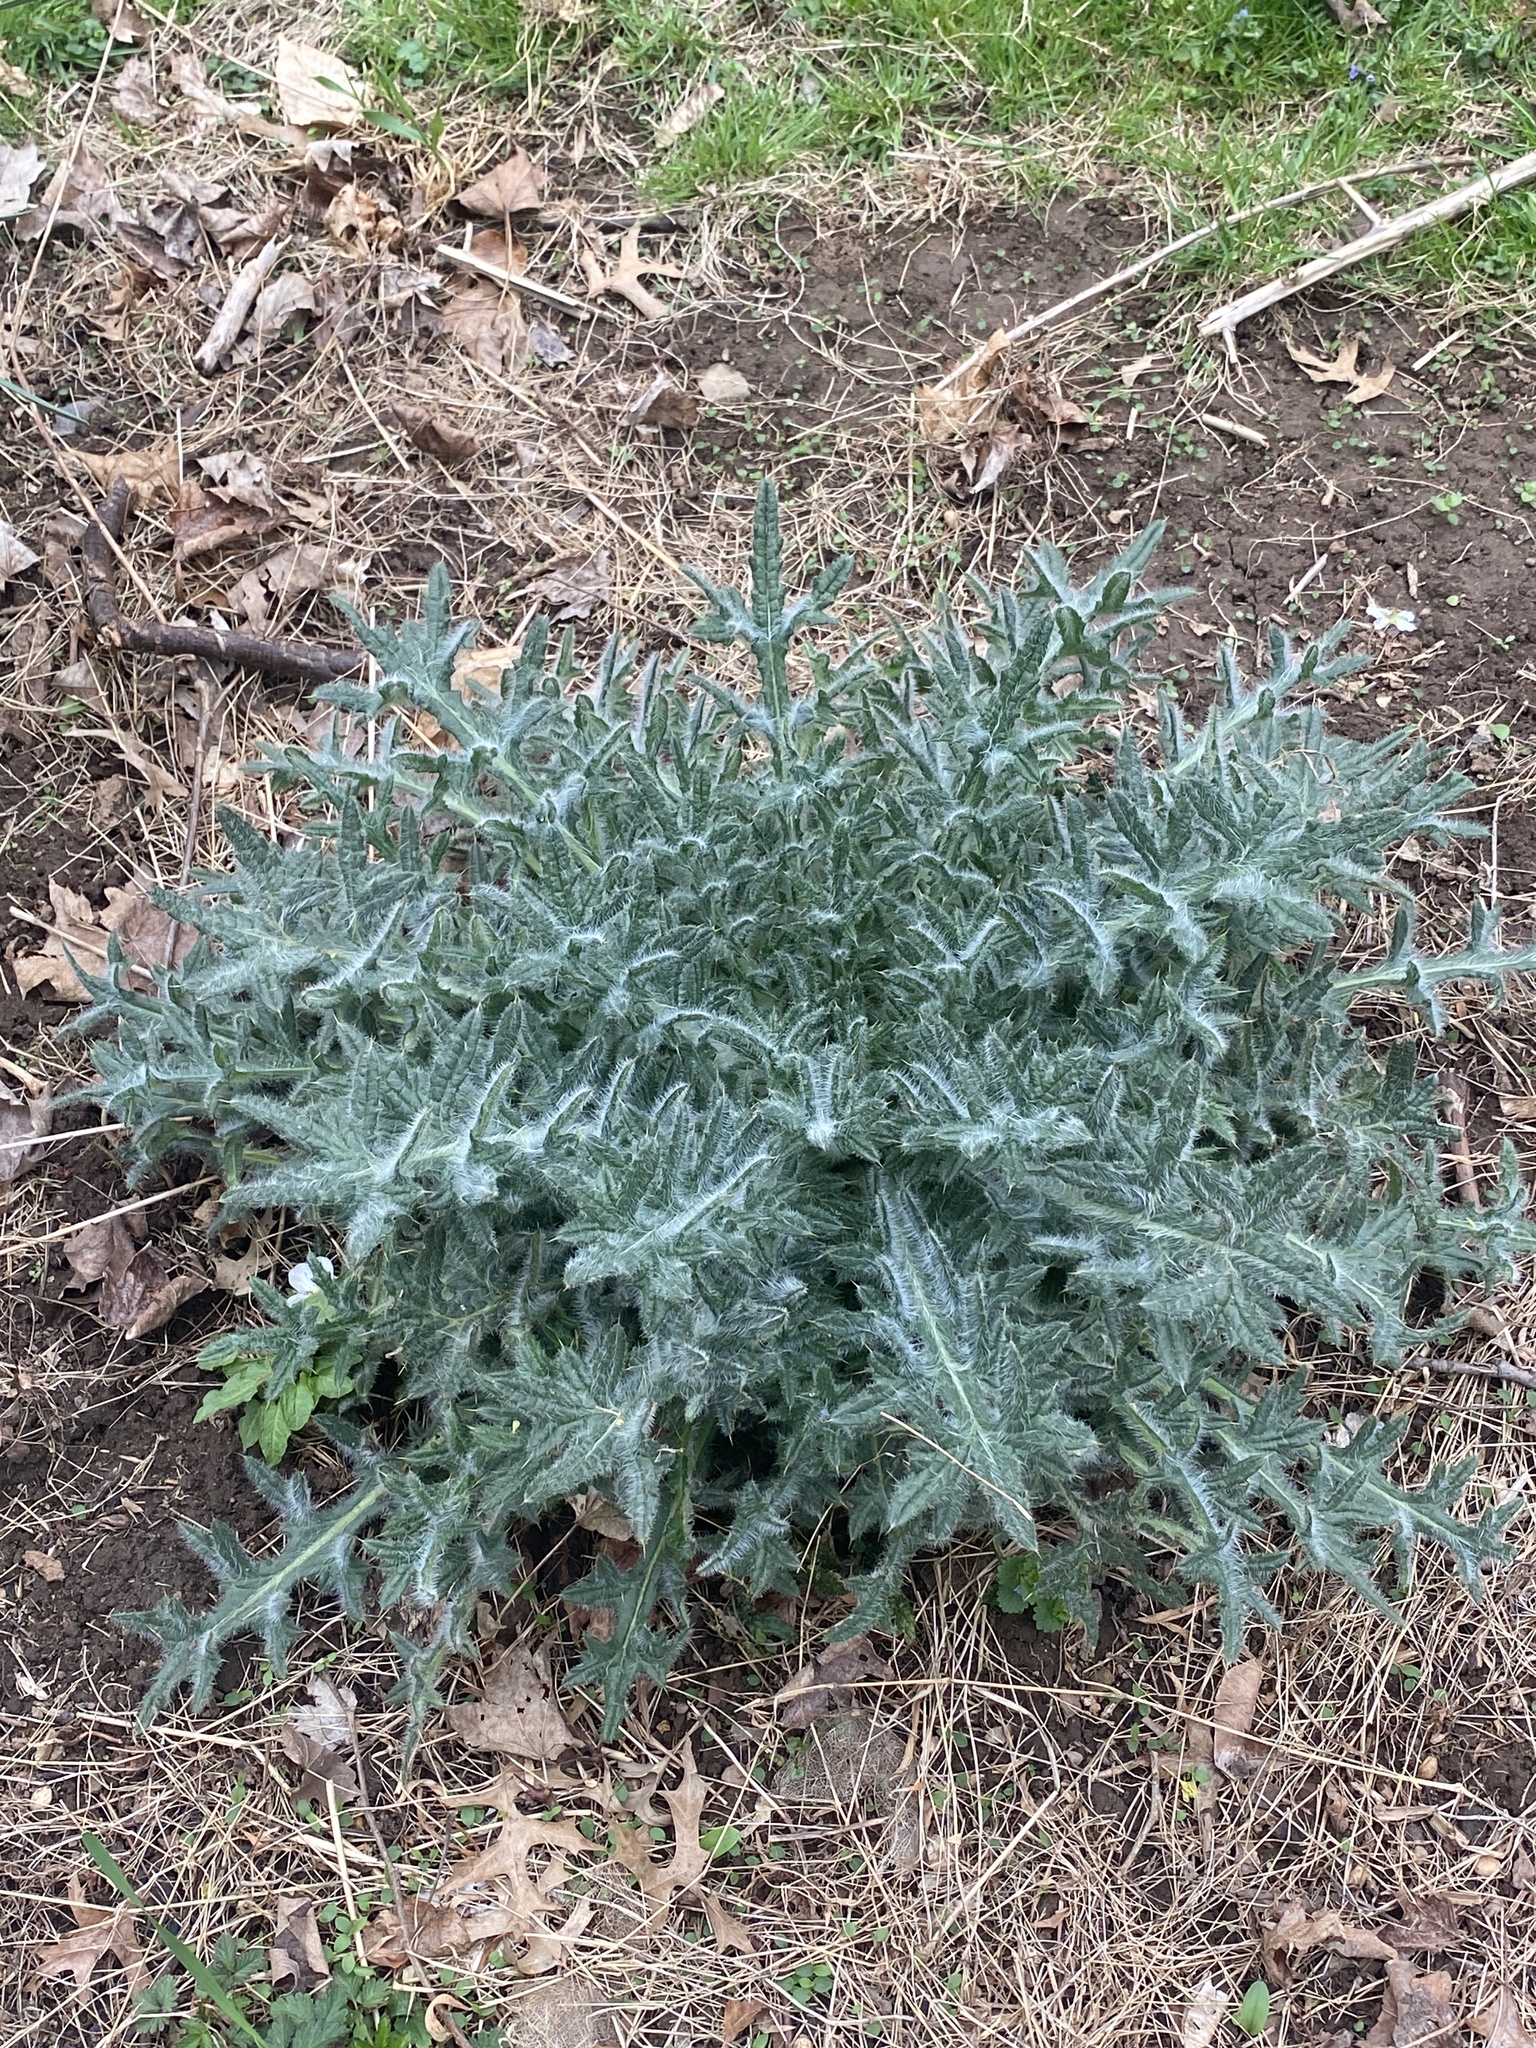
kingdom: Plantae
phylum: Tracheophyta
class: Magnoliopsida
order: Asterales
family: Asteraceae
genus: Cirsium
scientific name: Cirsium vulgare
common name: Bull thistle
